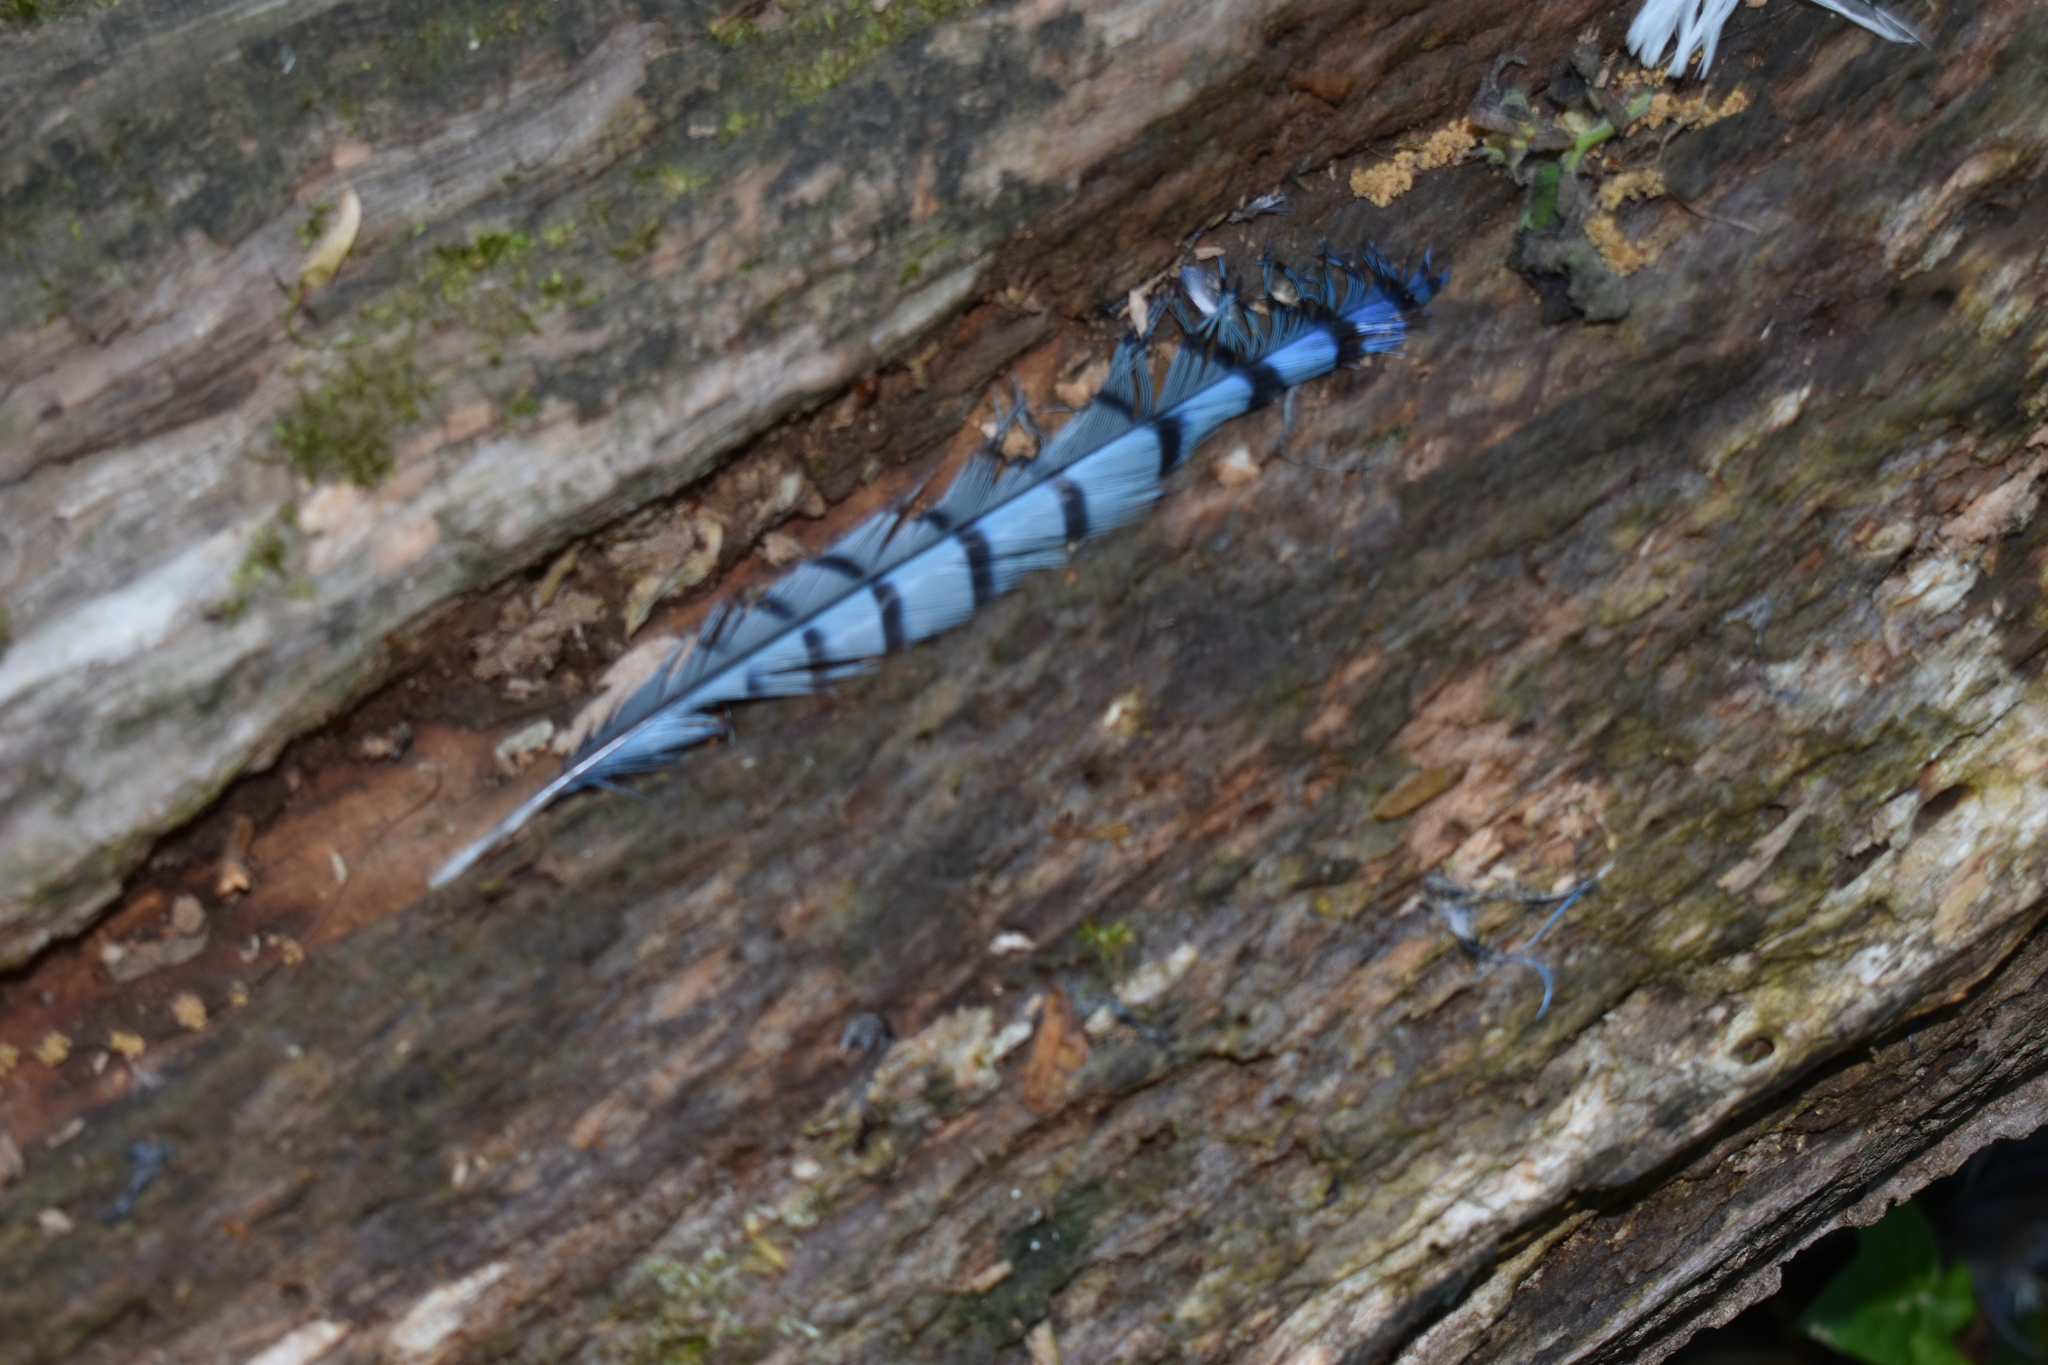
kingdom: Animalia
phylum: Chordata
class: Aves
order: Passeriformes
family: Corvidae
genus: Cyanocitta
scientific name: Cyanocitta cristata
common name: Blue jay
